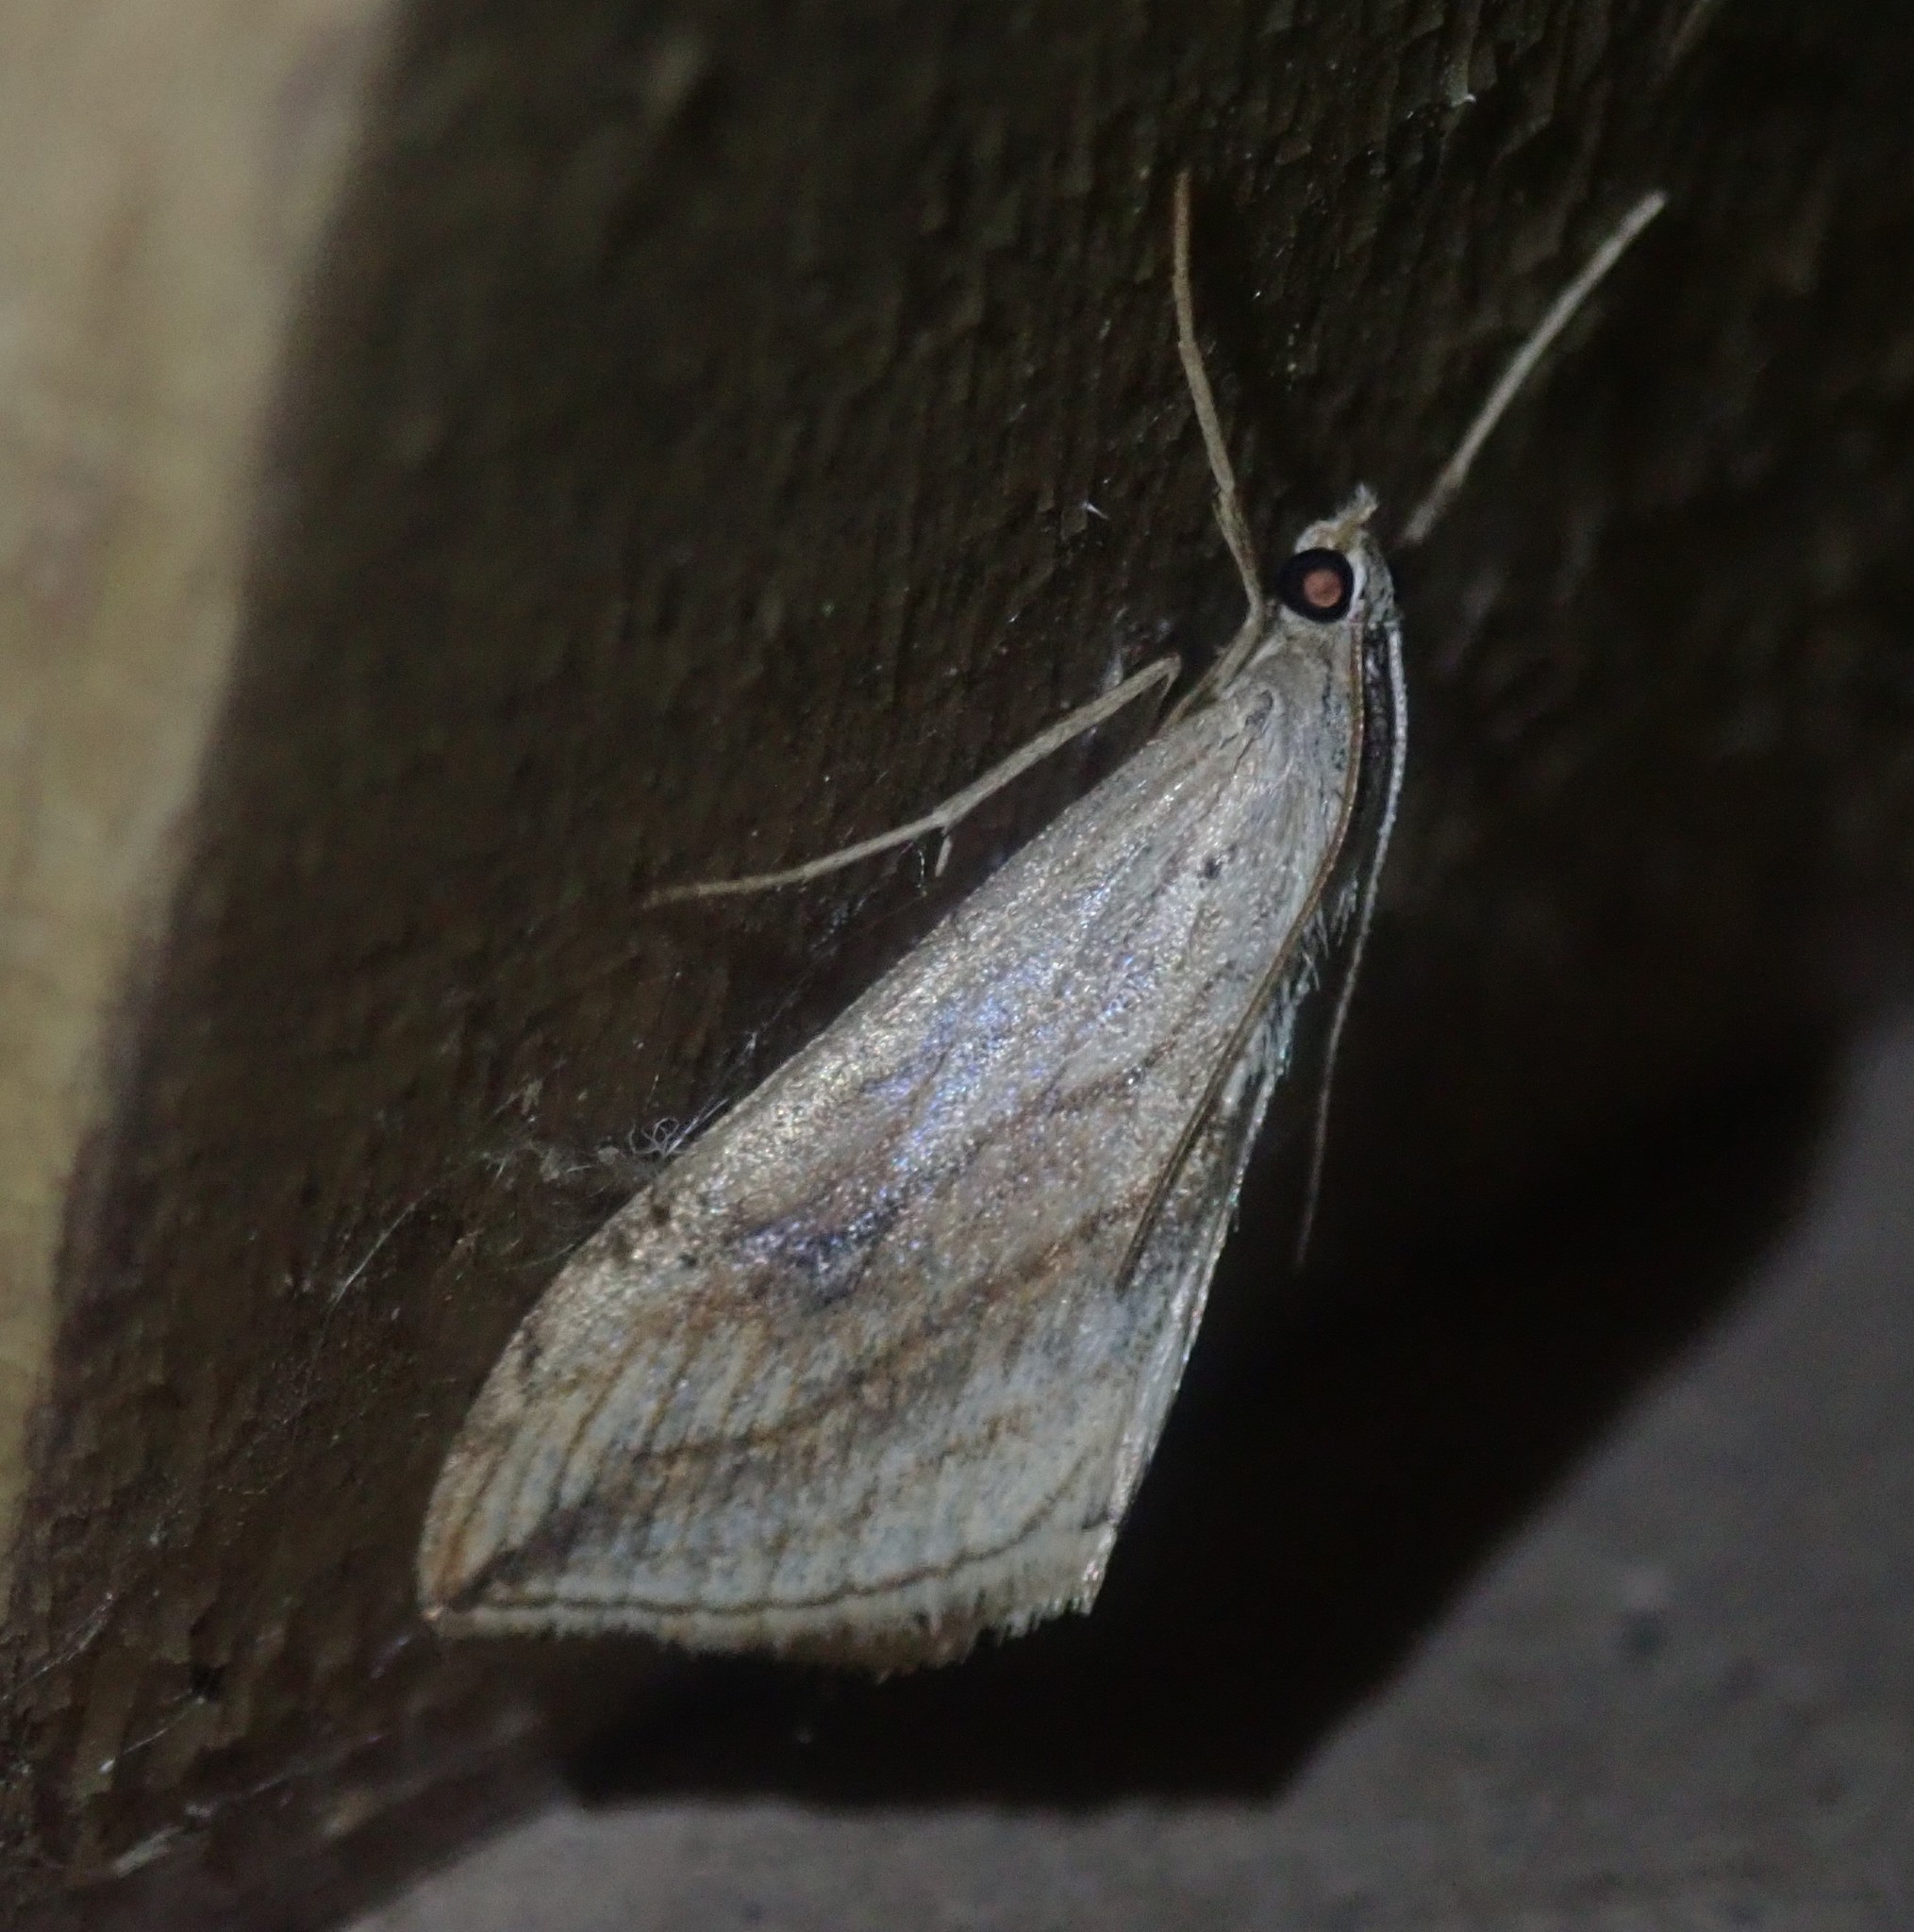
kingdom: Animalia
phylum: Arthropoda
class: Insecta
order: Lepidoptera
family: Crambidae
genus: Evergestis
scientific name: Evergestis forficalis
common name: Garden pebble
